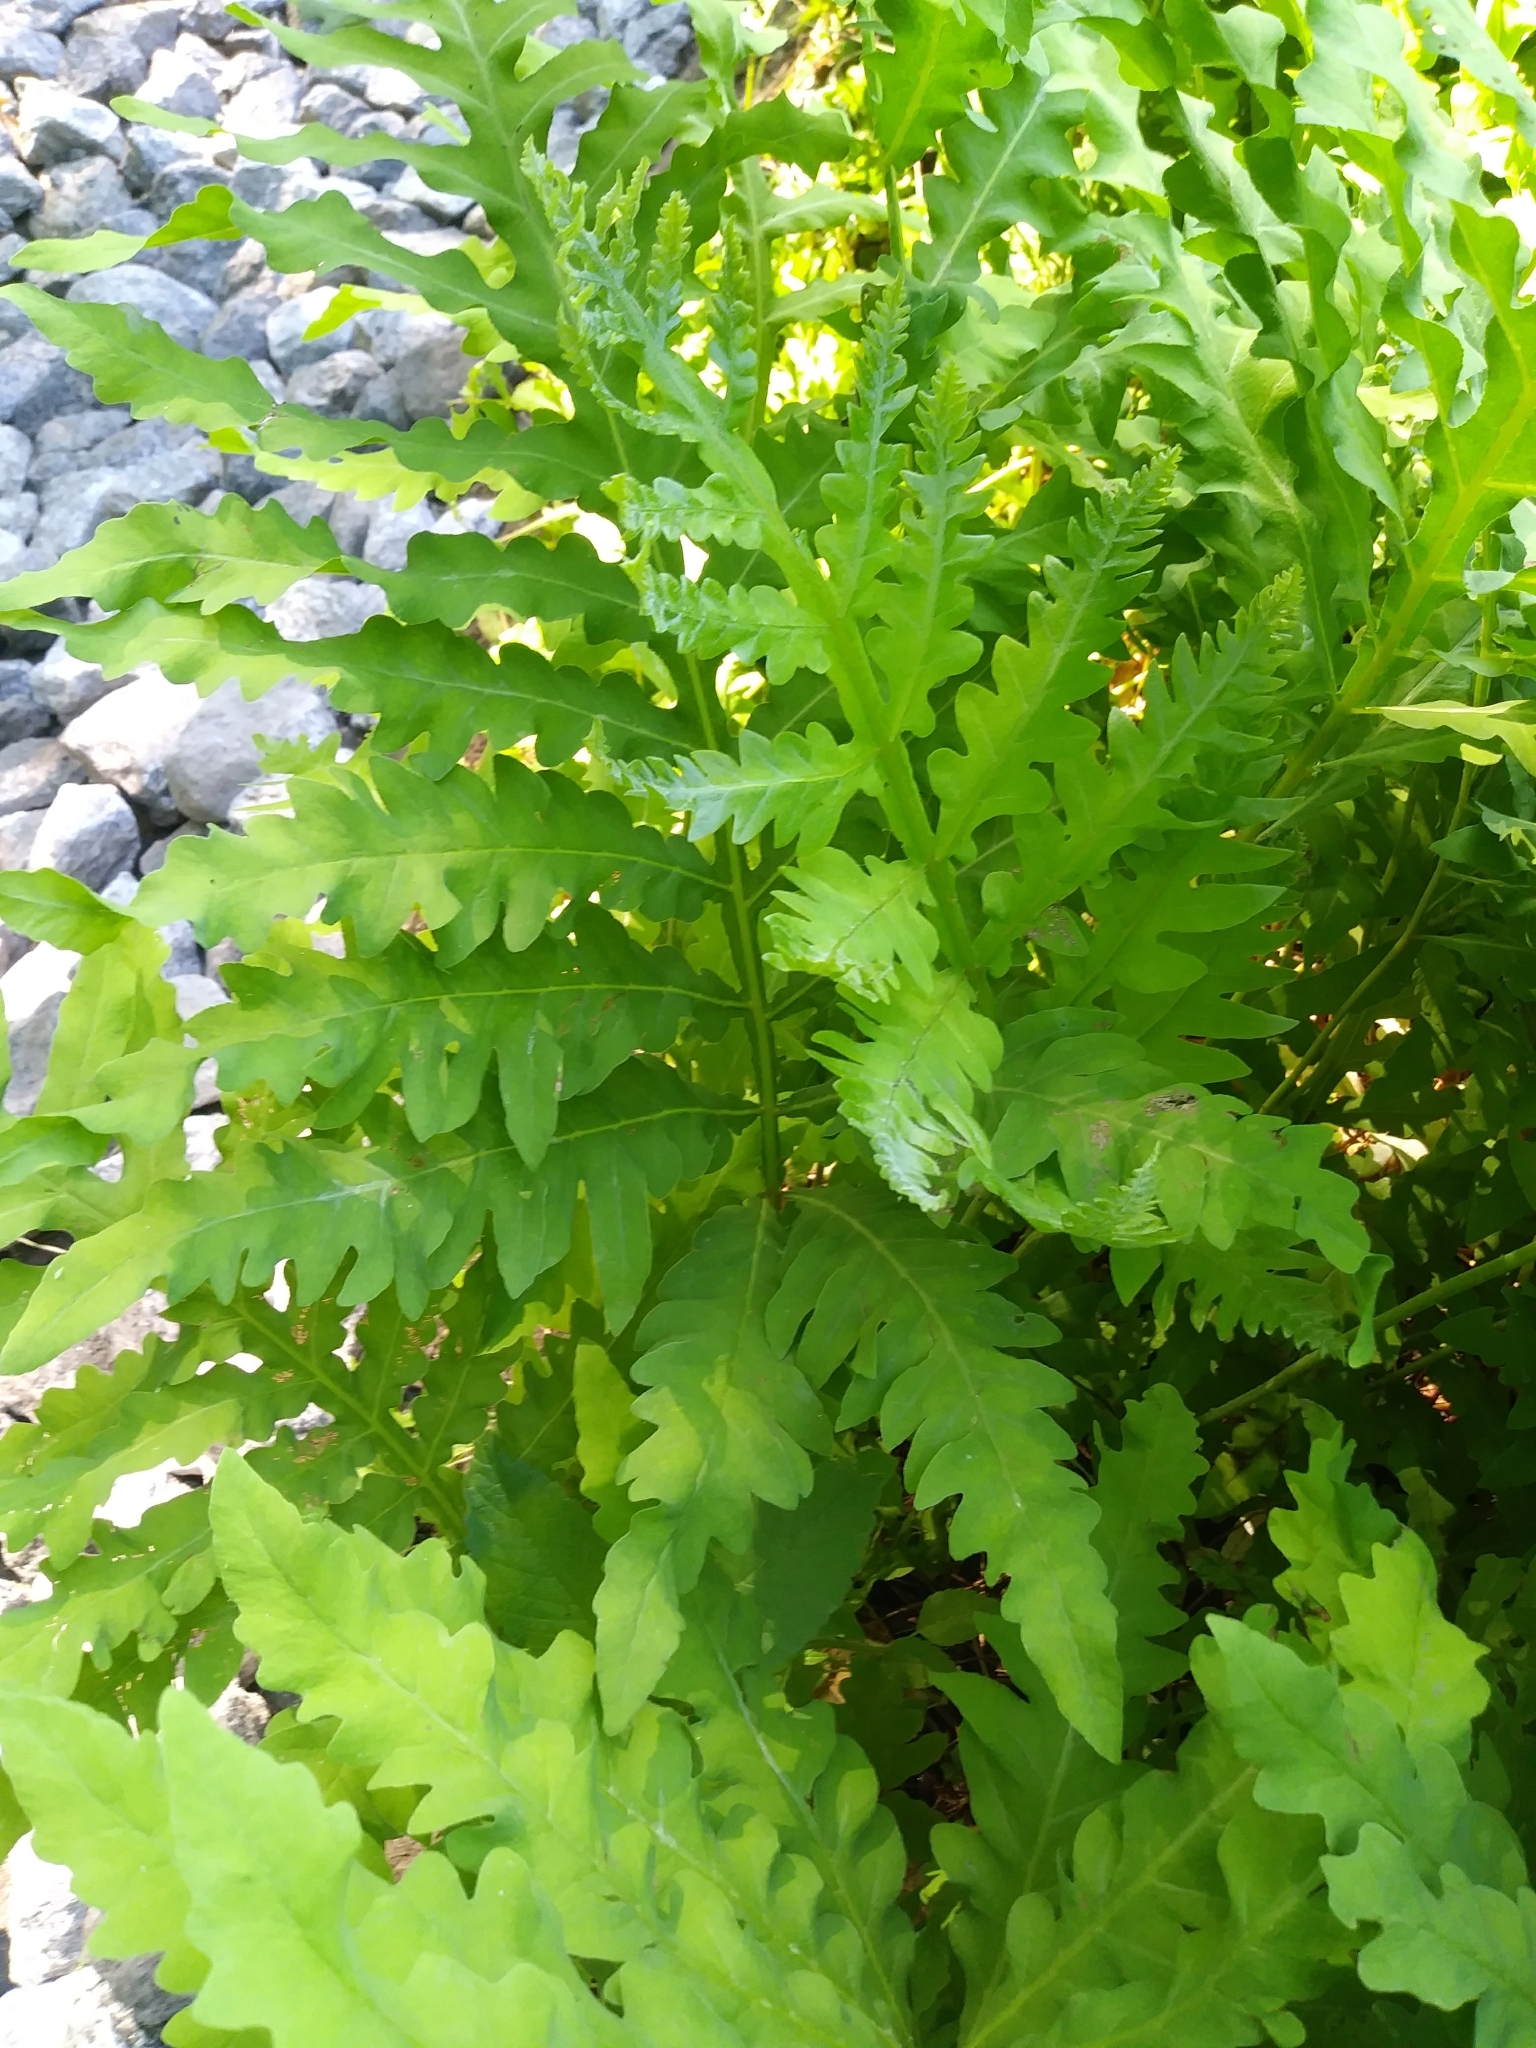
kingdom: Plantae
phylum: Tracheophyta
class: Polypodiopsida
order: Polypodiales
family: Onocleaceae
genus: Onoclea
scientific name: Onoclea sensibilis
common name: Sensitive fern
